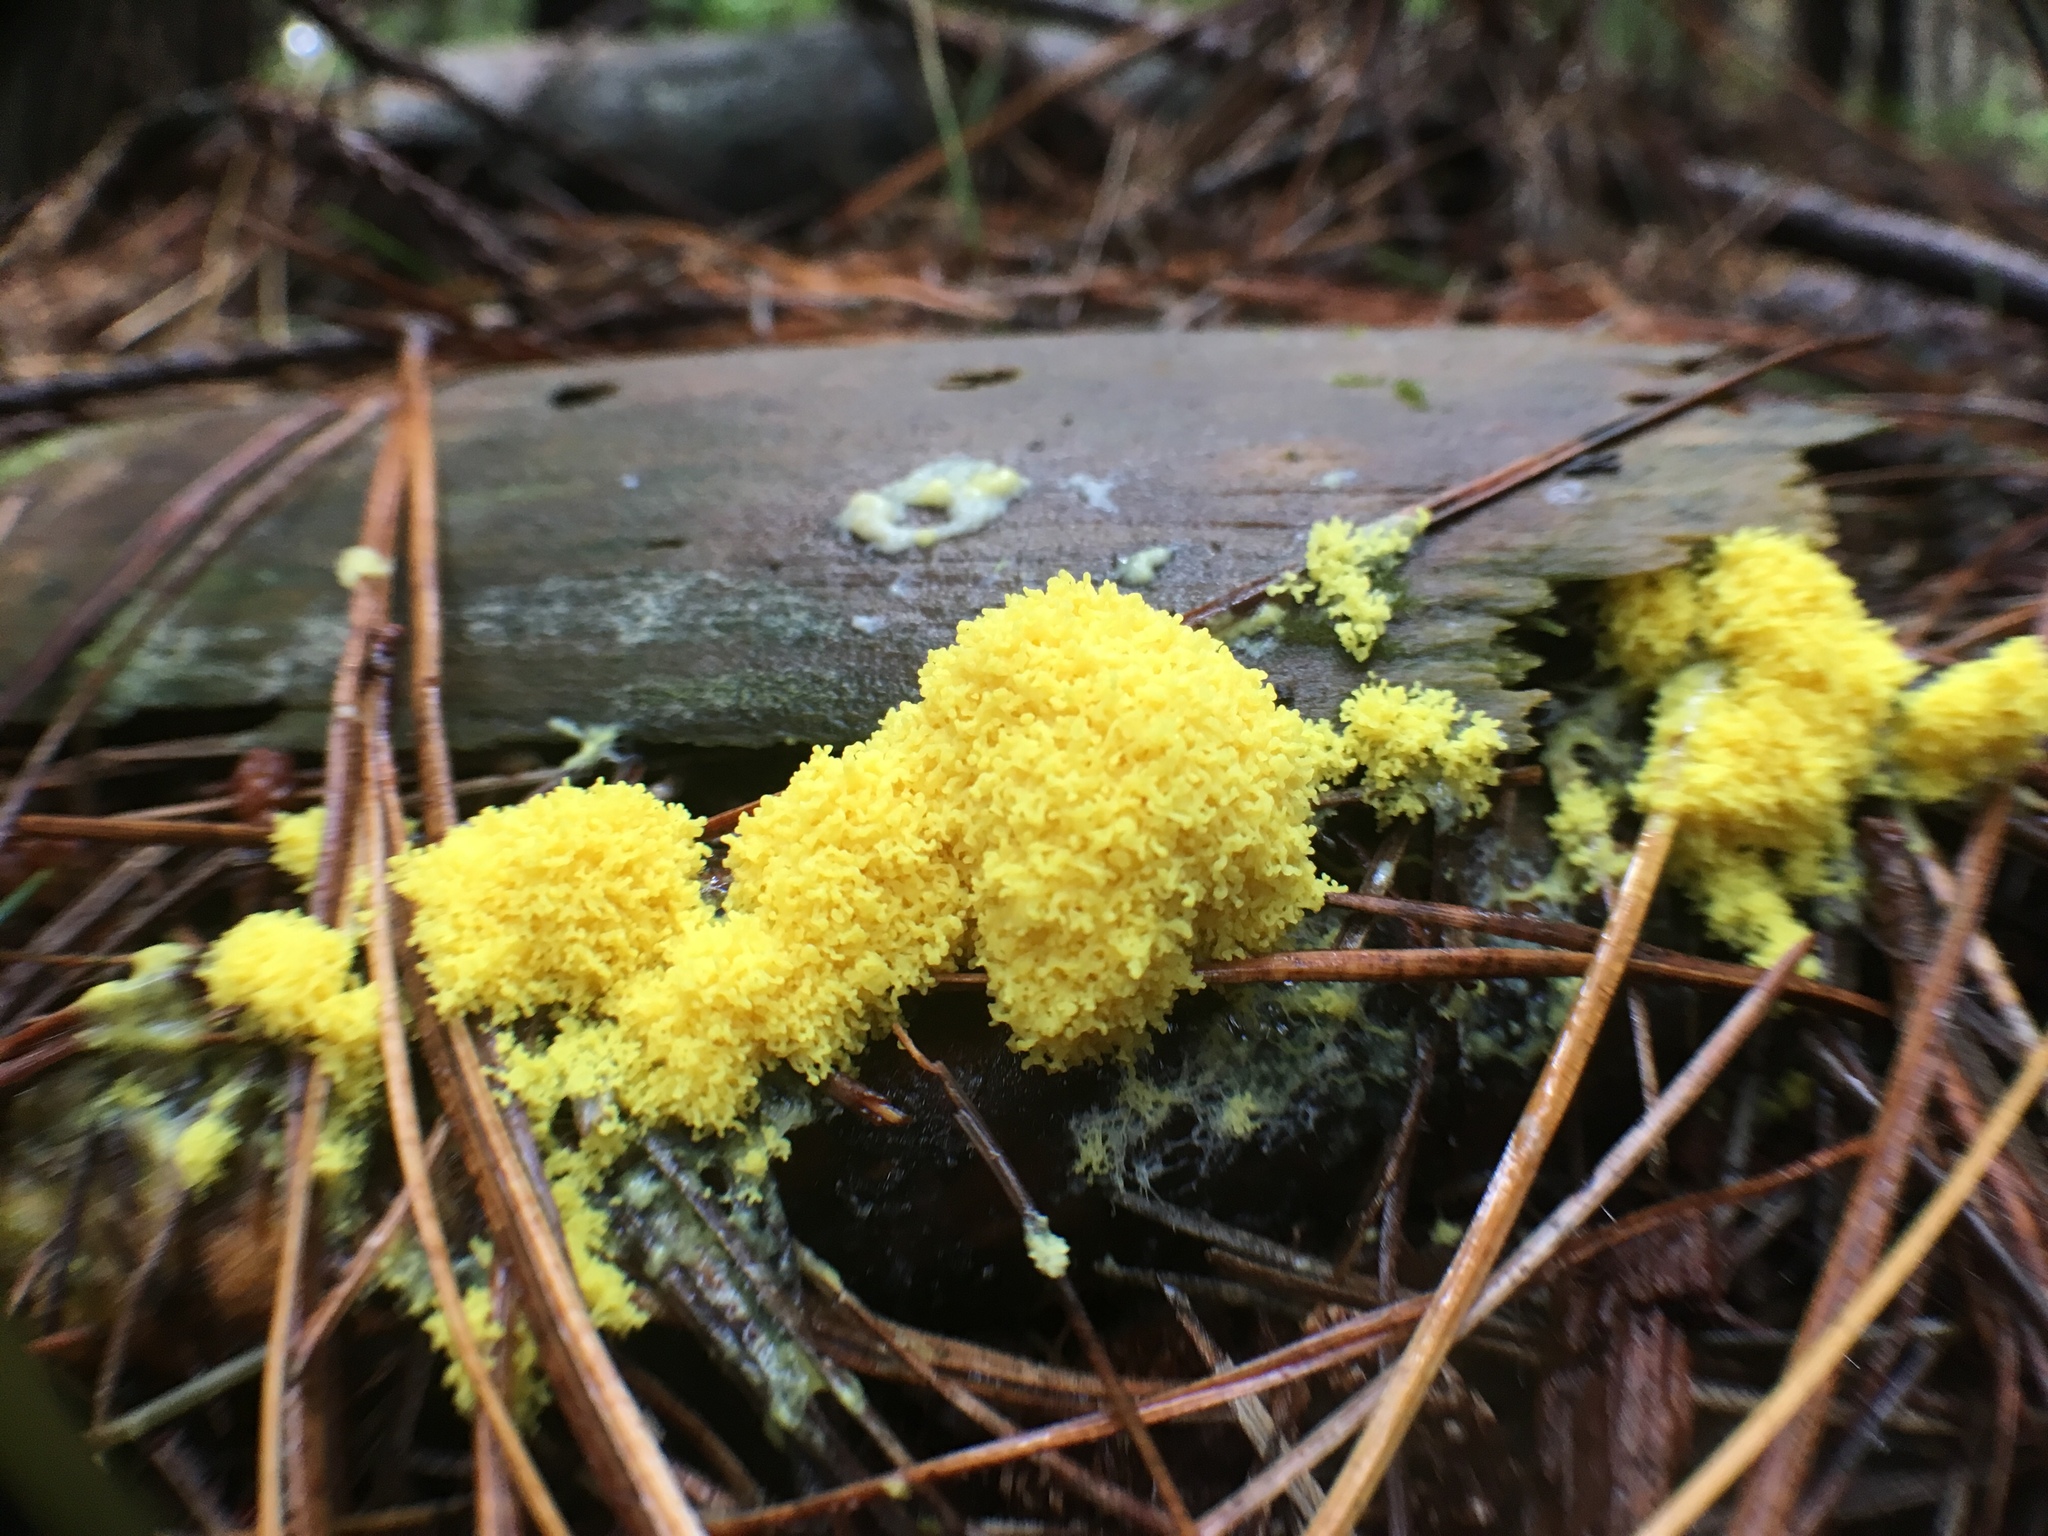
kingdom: Protozoa
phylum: Mycetozoa
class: Myxomycetes
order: Physarales
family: Physaraceae
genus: Fuligo
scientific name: Fuligo septica
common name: Dog vomit slime mold
